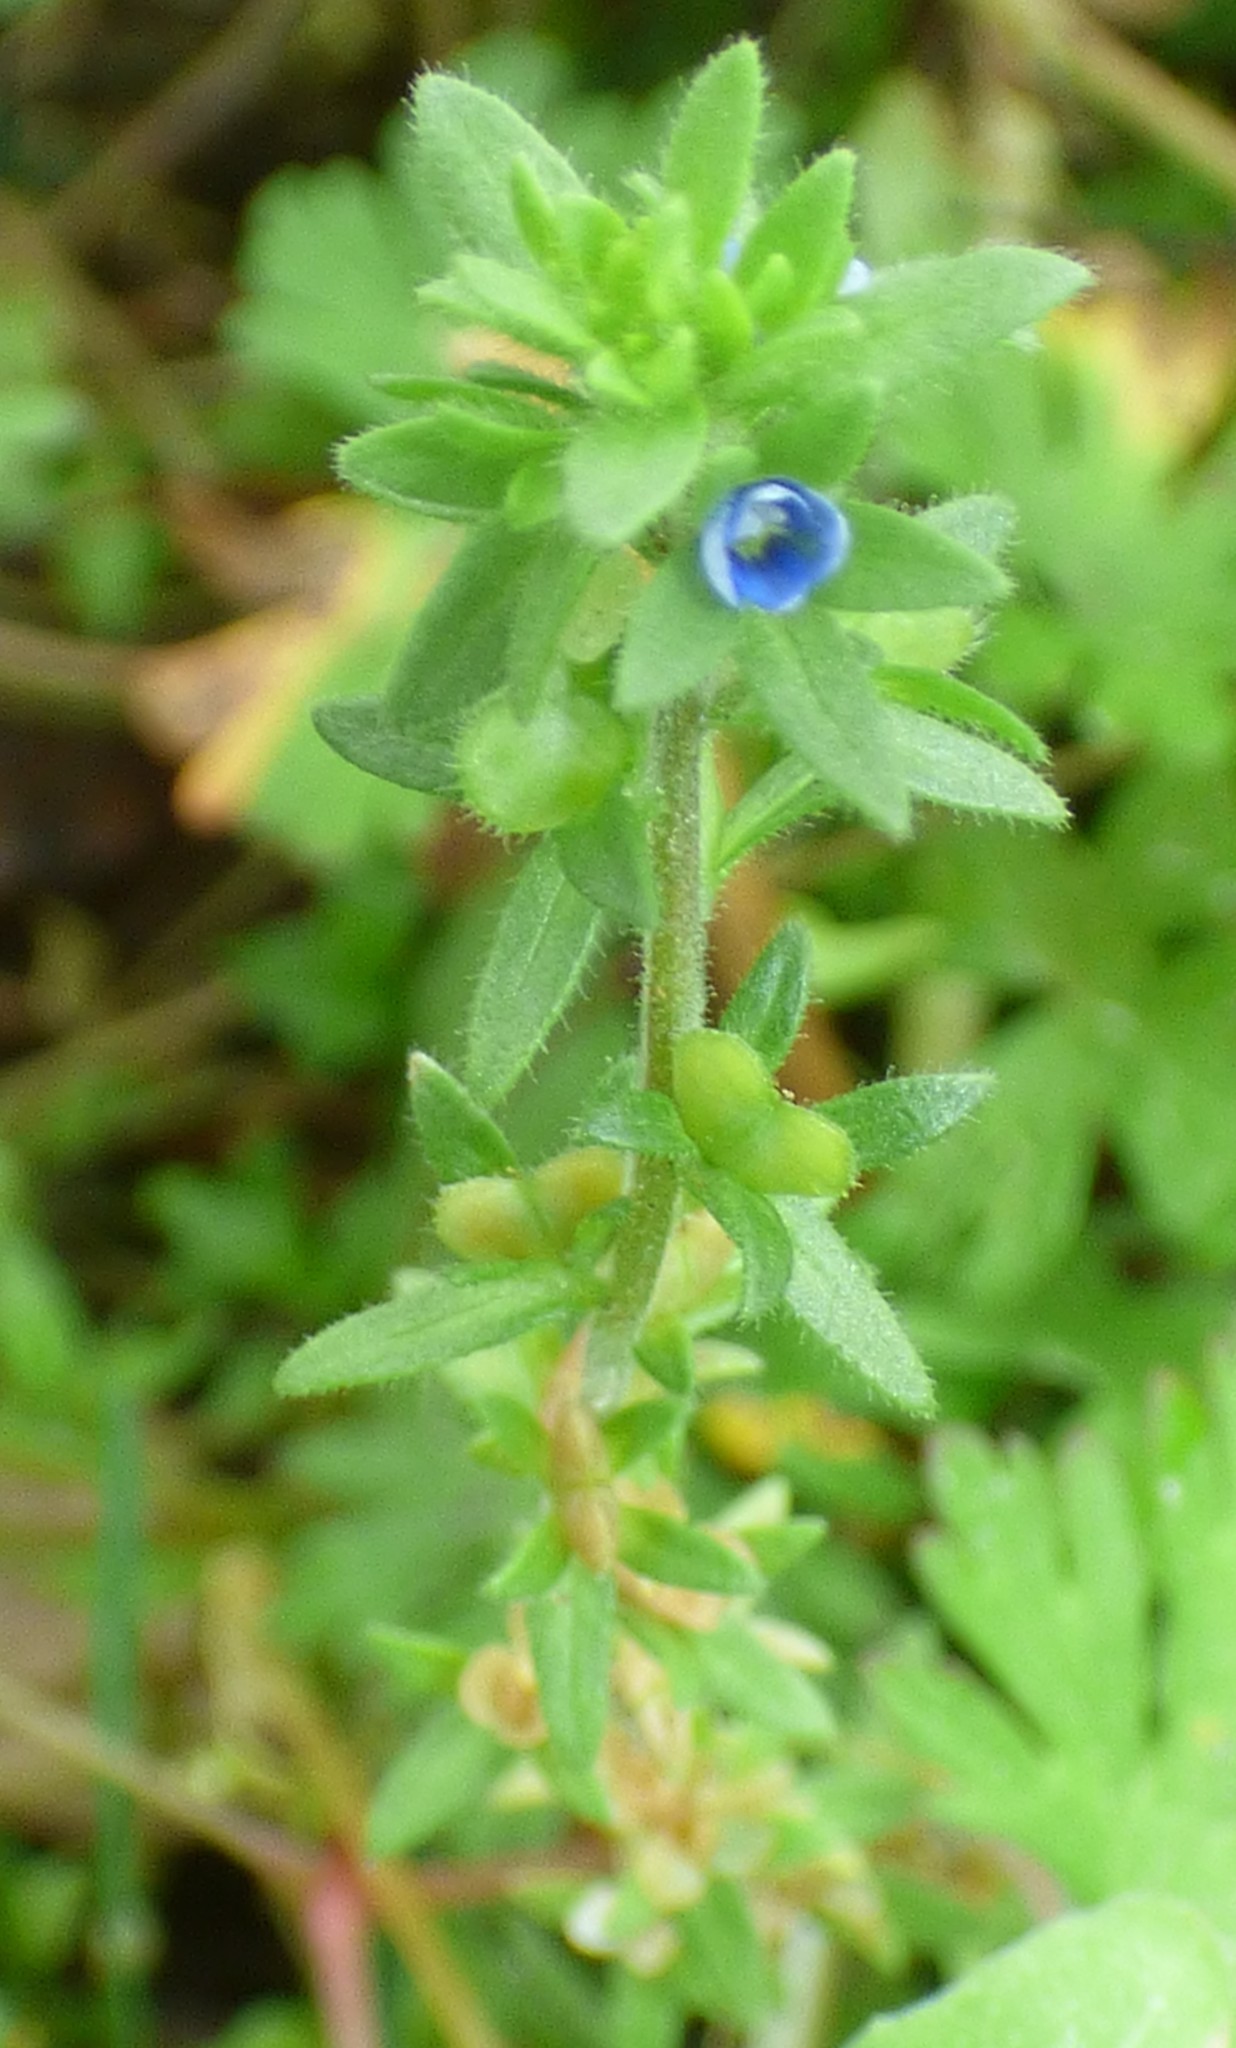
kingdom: Plantae
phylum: Tracheophyta
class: Magnoliopsida
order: Lamiales
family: Plantaginaceae
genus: Veronica
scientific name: Veronica arvensis
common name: Corn speedwell
